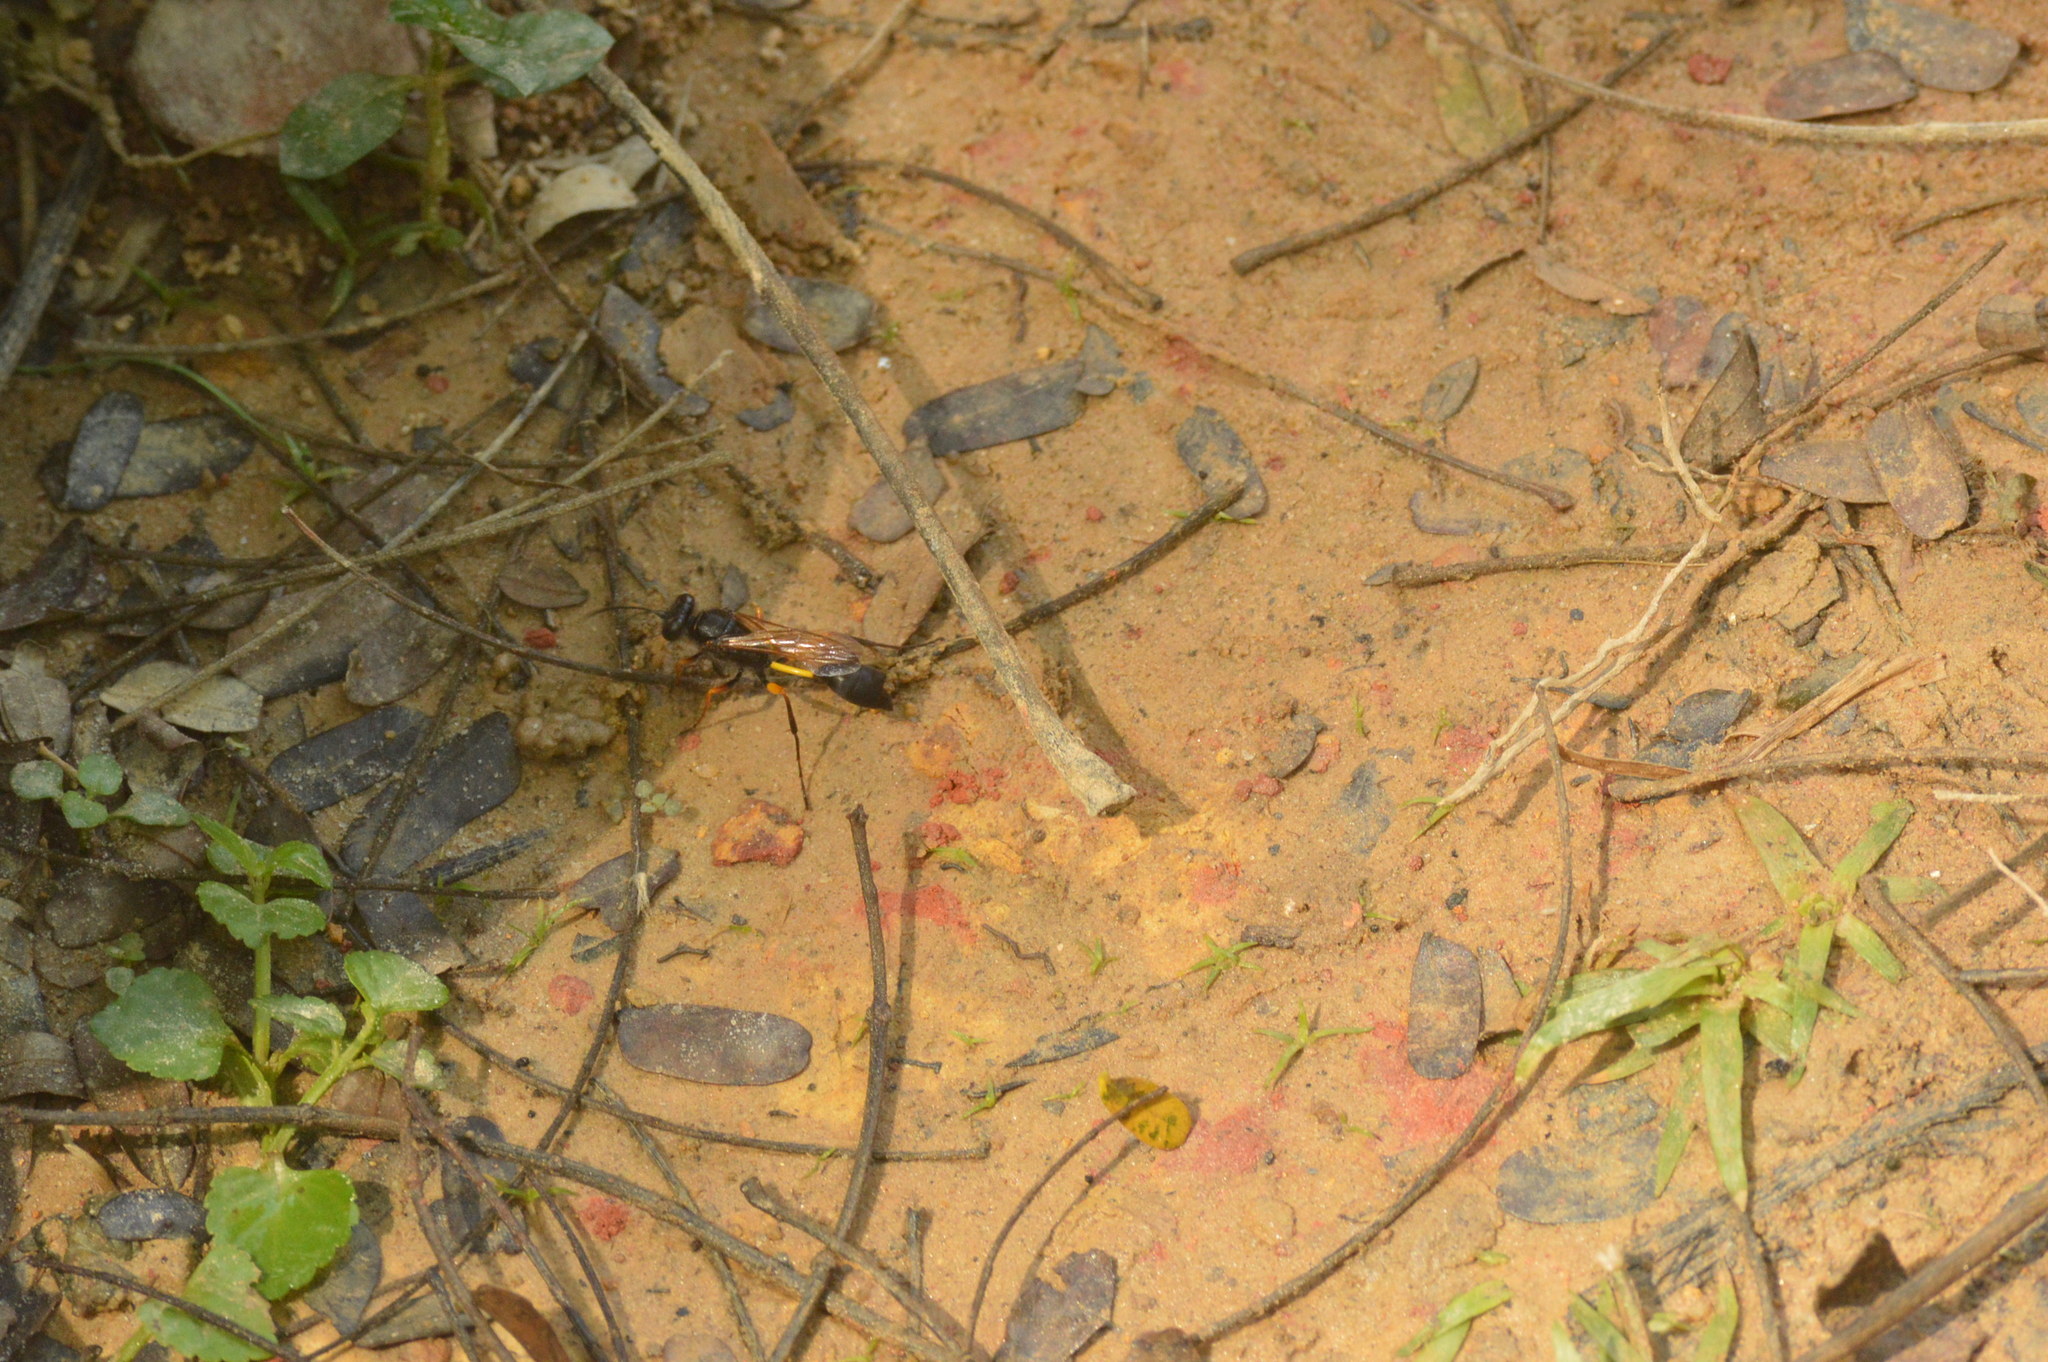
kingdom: Animalia
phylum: Arthropoda
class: Insecta
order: Hymenoptera
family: Sphecidae
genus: Sceliphron
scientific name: Sceliphron javanum
